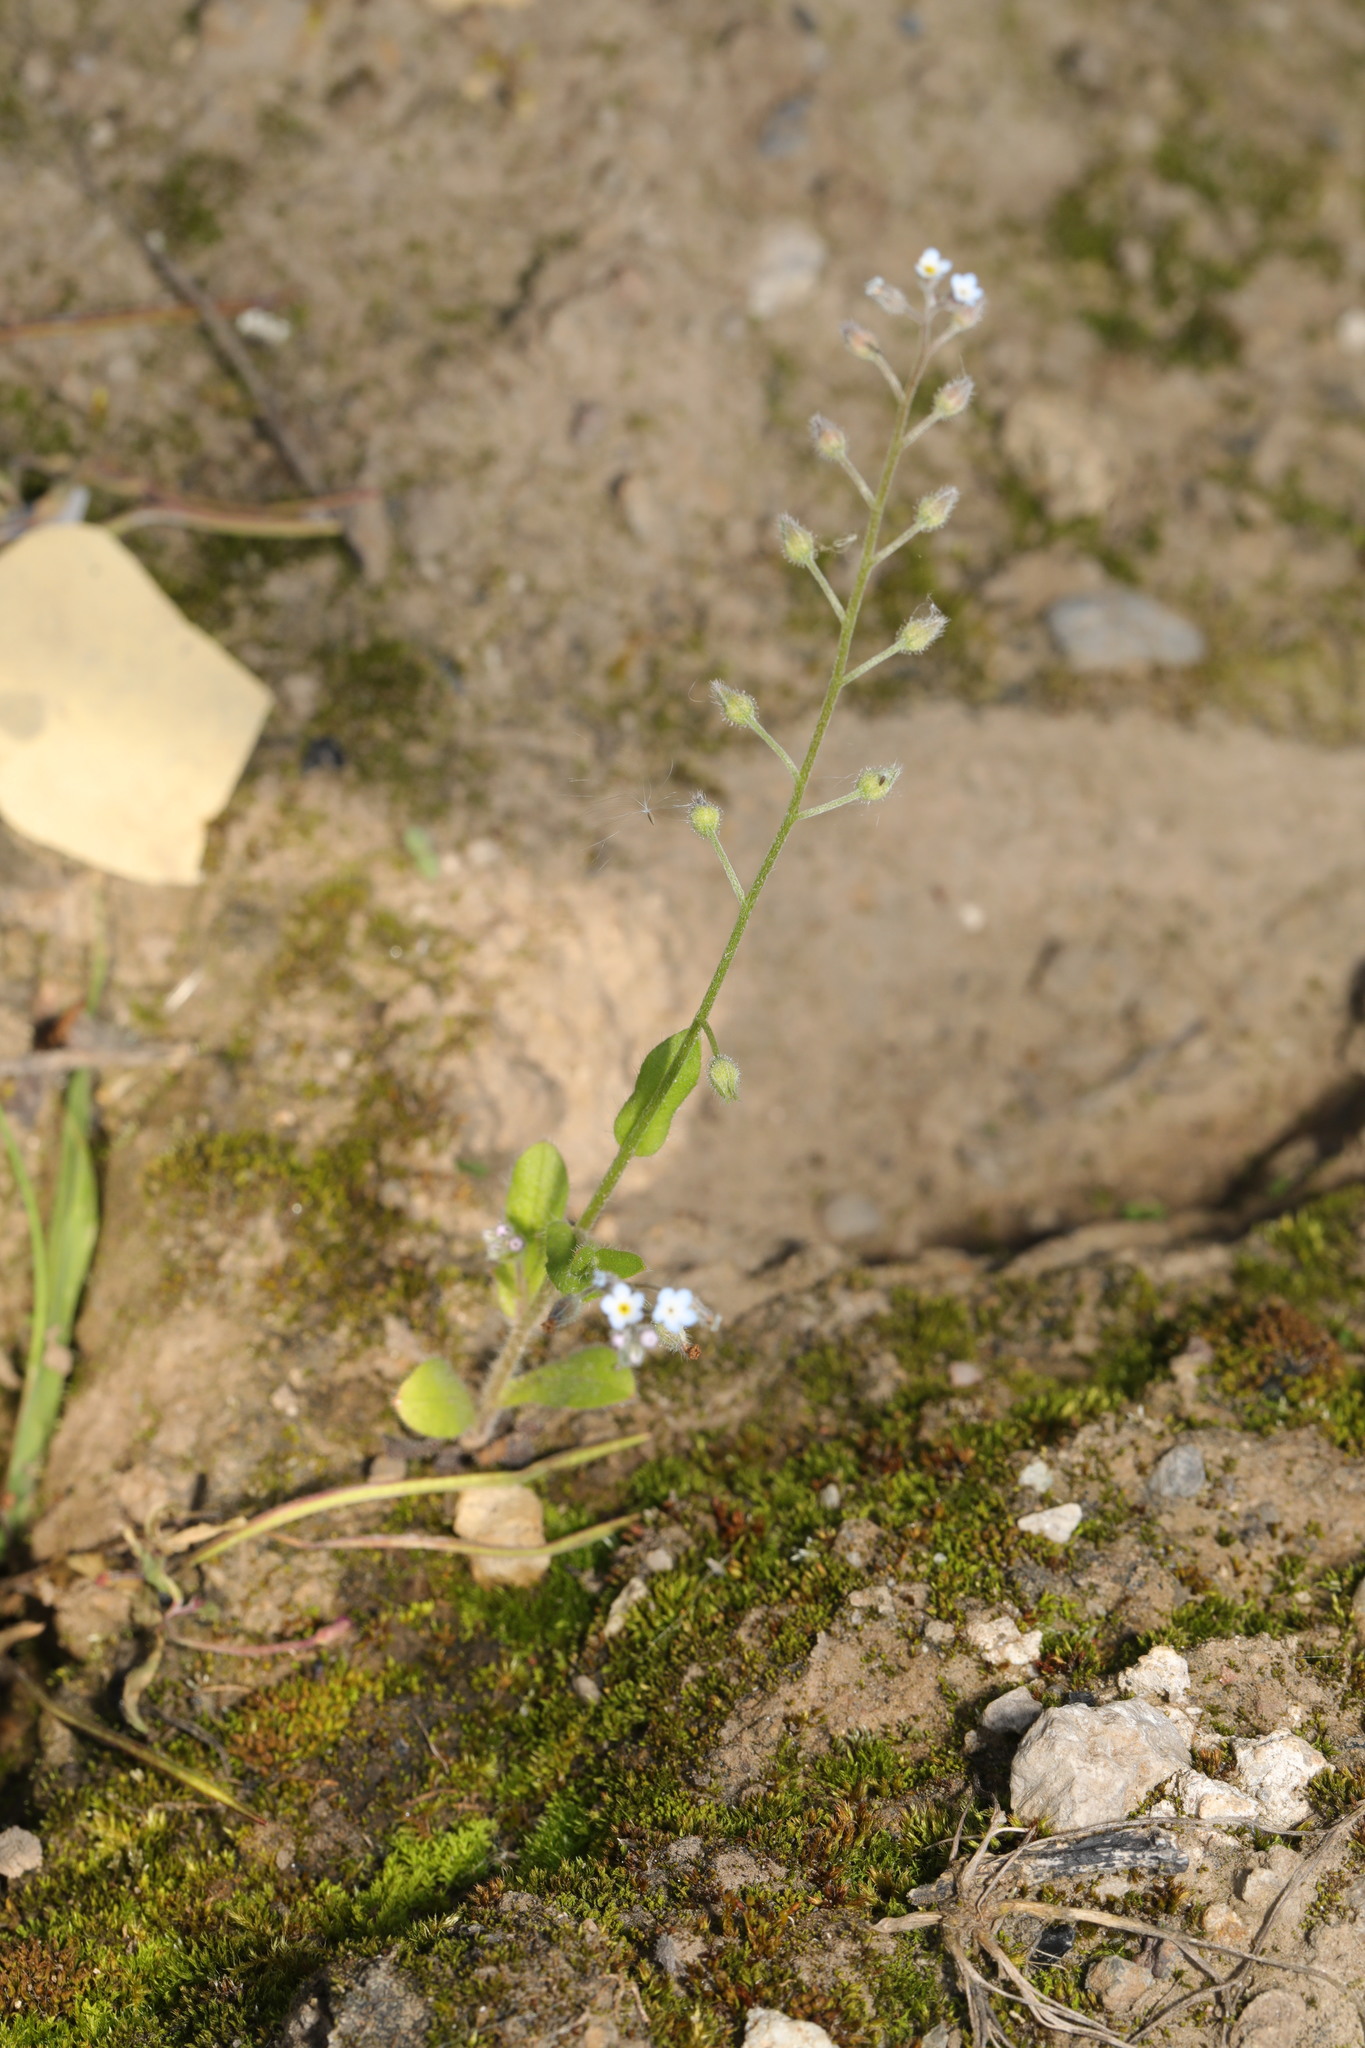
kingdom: Plantae
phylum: Tracheophyta
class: Magnoliopsida
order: Boraginales
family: Boraginaceae
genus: Myosotis
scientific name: Myosotis arvensis
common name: Field forget-me-not
